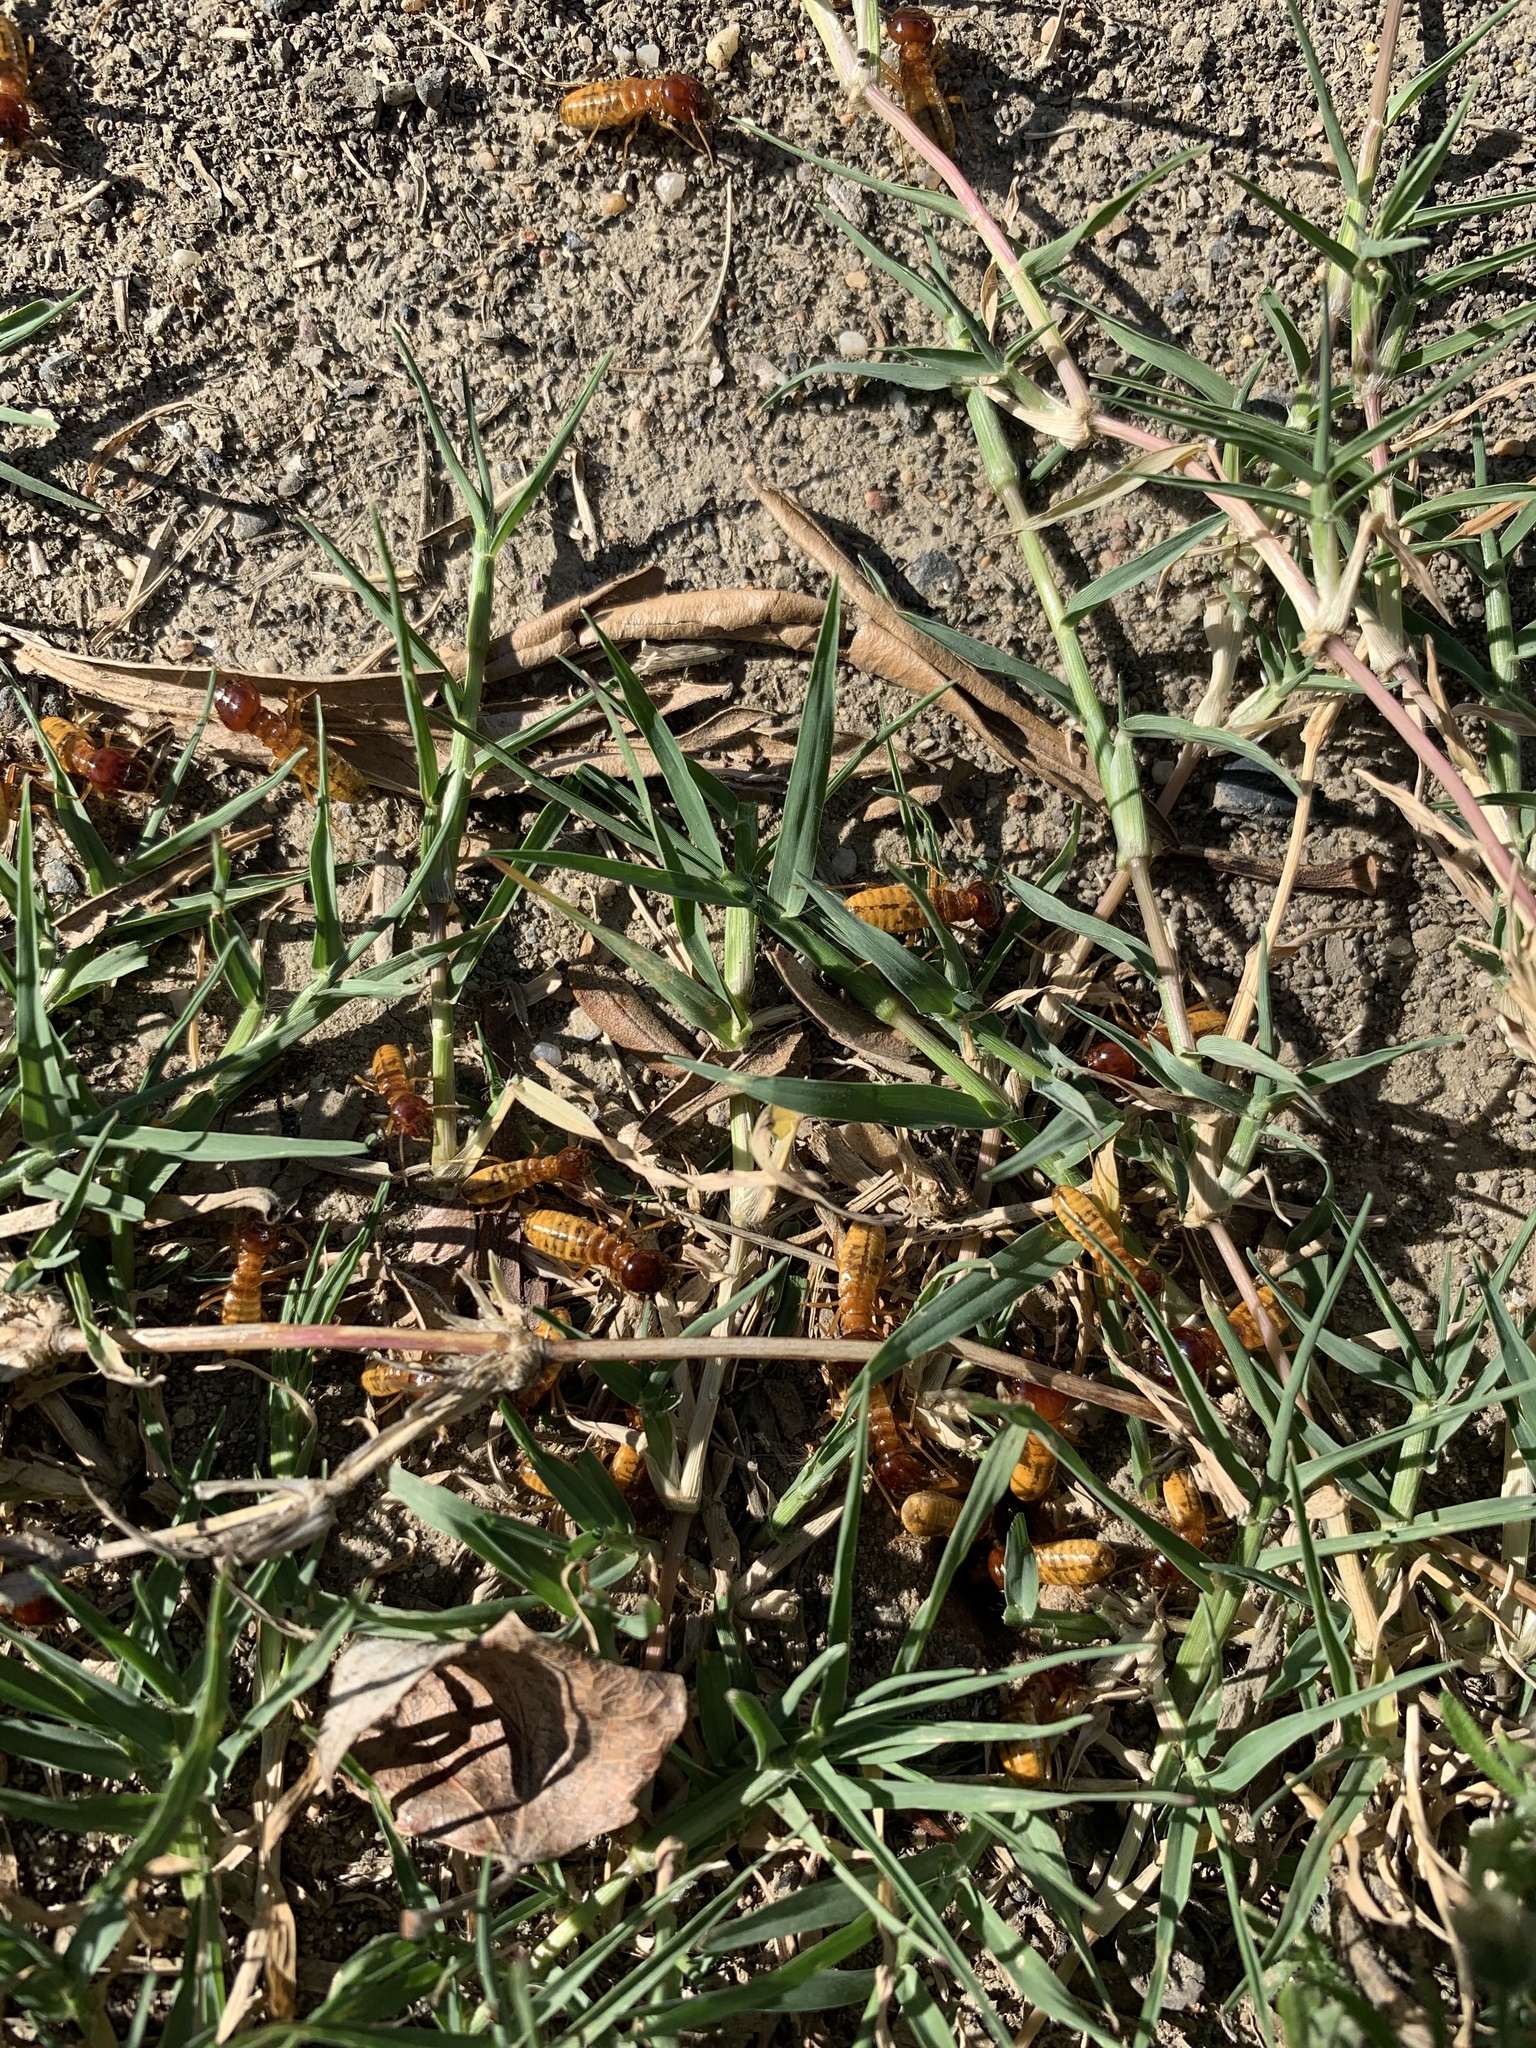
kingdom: Animalia
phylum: Arthropoda
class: Insecta
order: Blattodea
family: Hodotermitidae
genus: Microhodotermes
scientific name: Microhodotermes viator
